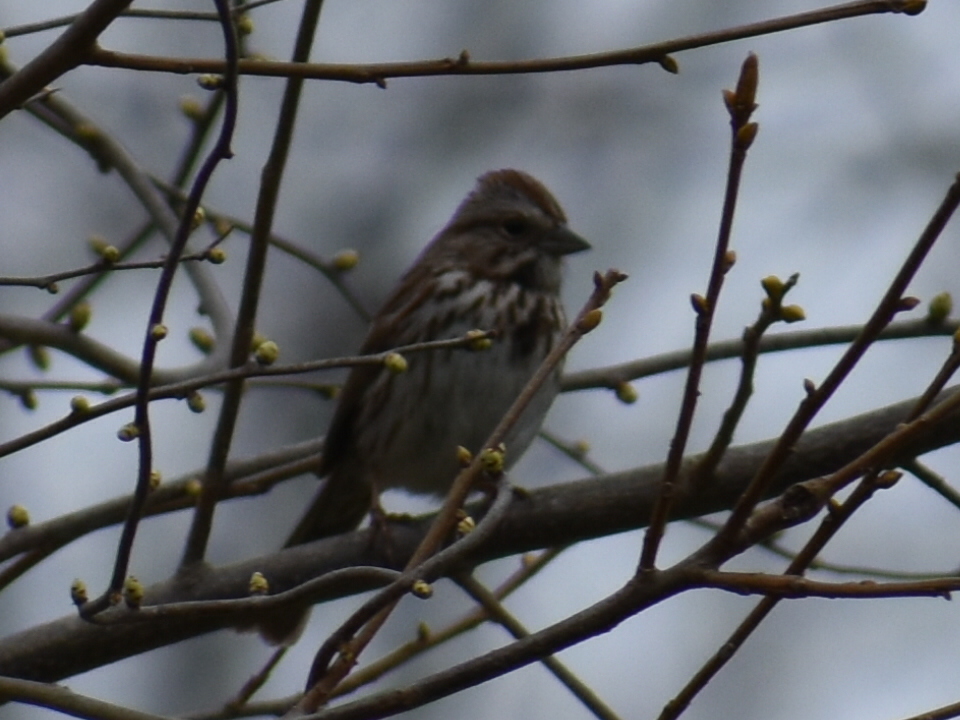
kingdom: Animalia
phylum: Chordata
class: Aves
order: Passeriformes
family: Passerellidae
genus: Melospiza
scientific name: Melospiza melodia
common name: Song sparrow
